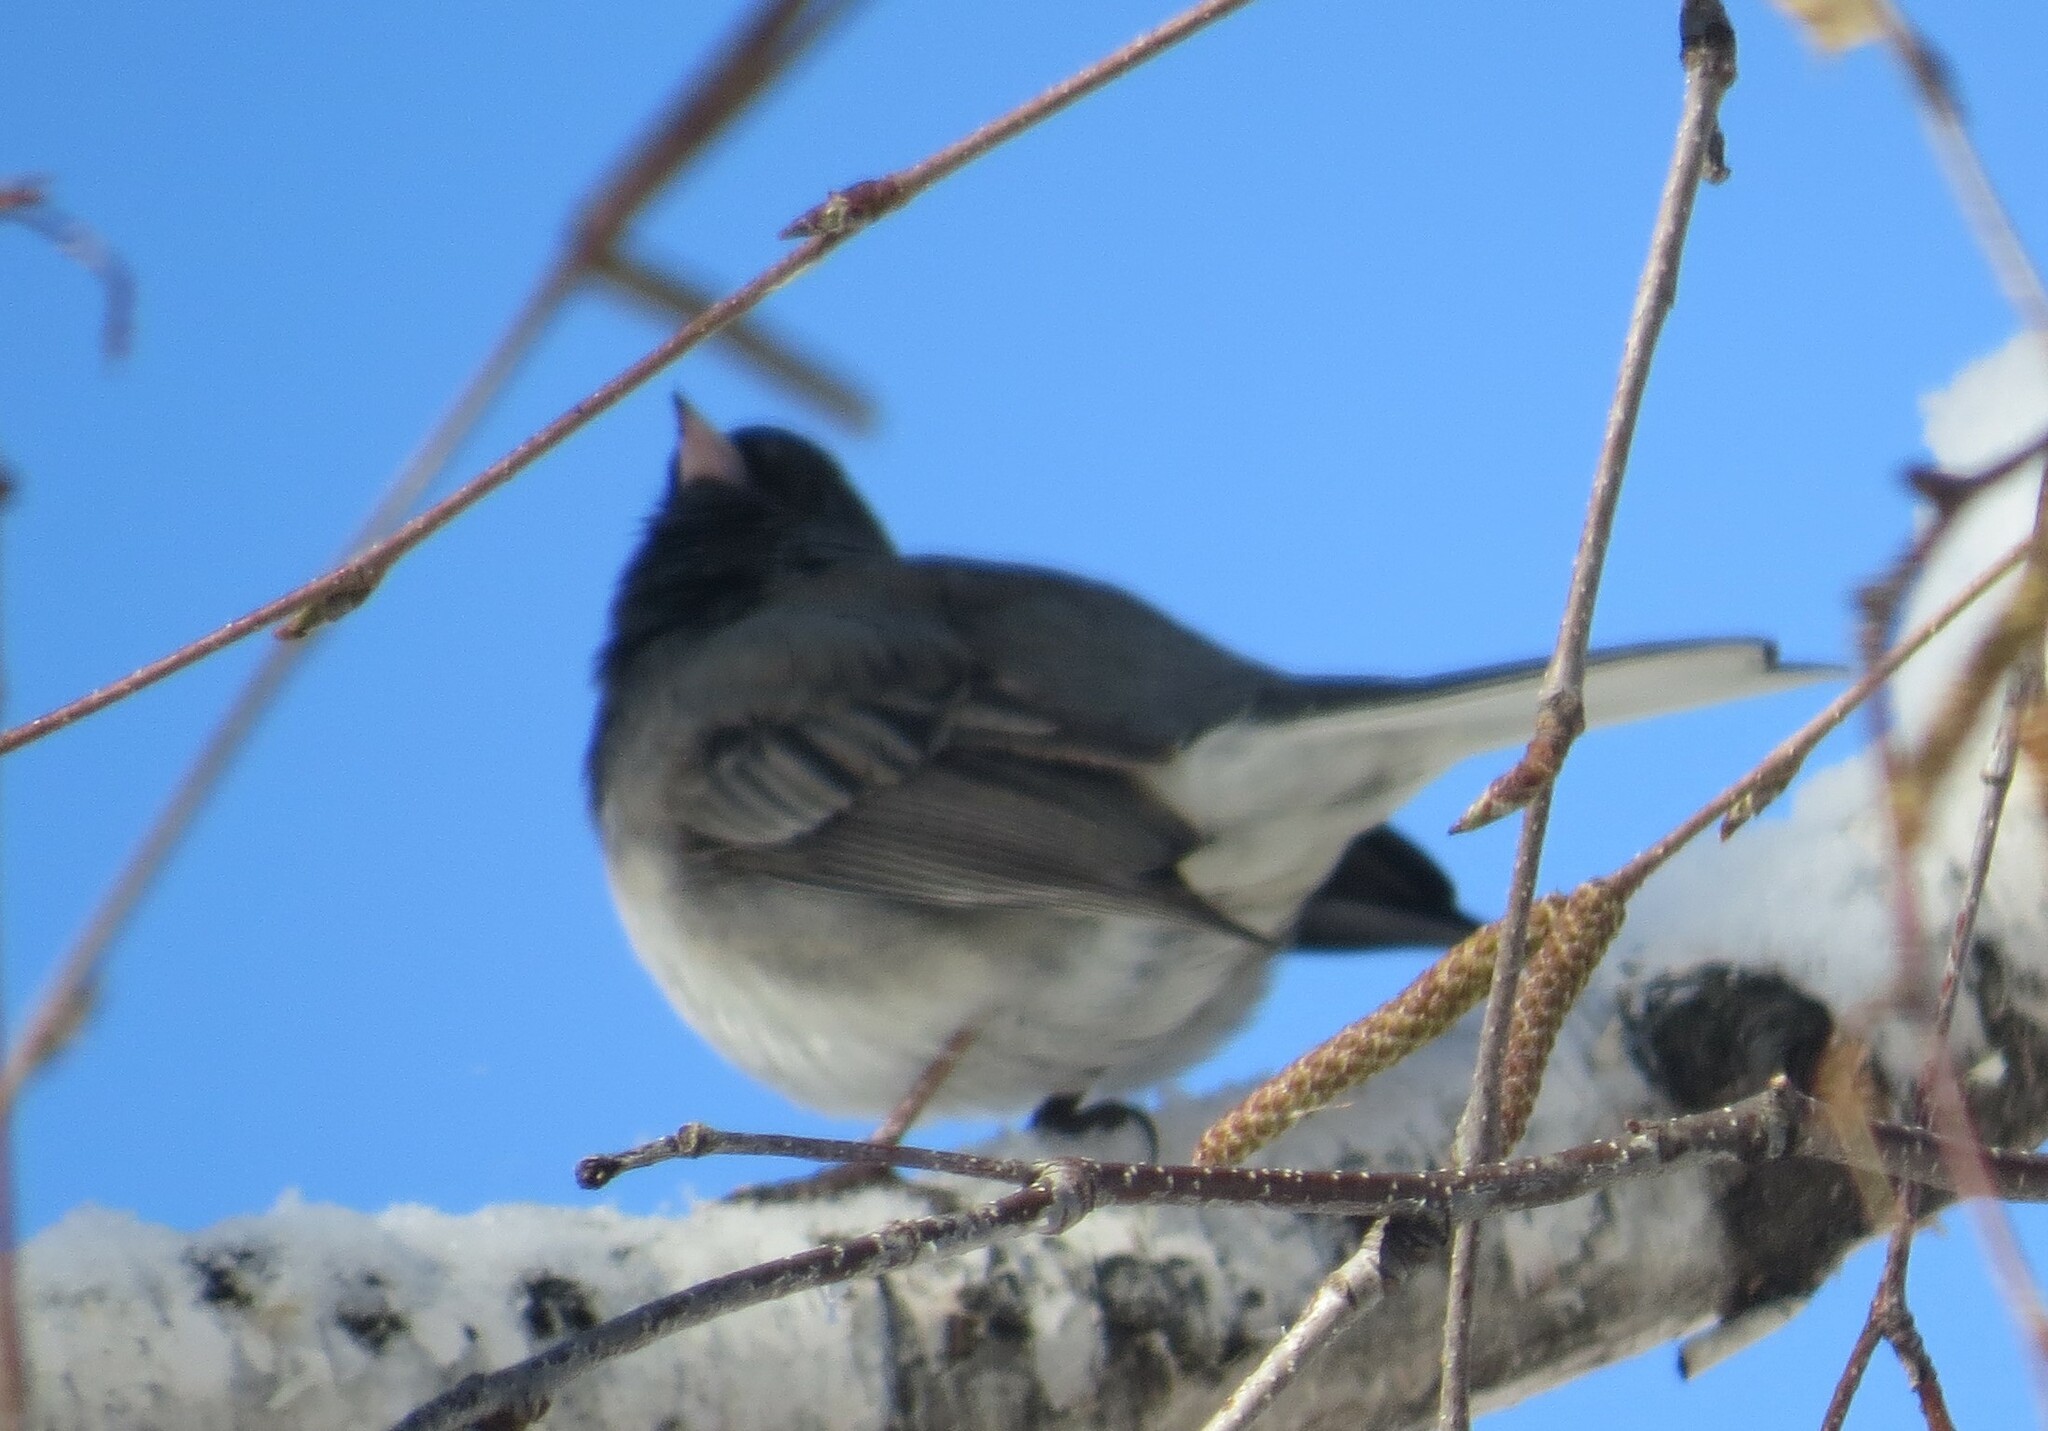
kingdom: Animalia
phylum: Chordata
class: Aves
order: Passeriformes
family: Passerellidae
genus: Junco
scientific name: Junco hyemalis
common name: Dark-eyed junco
